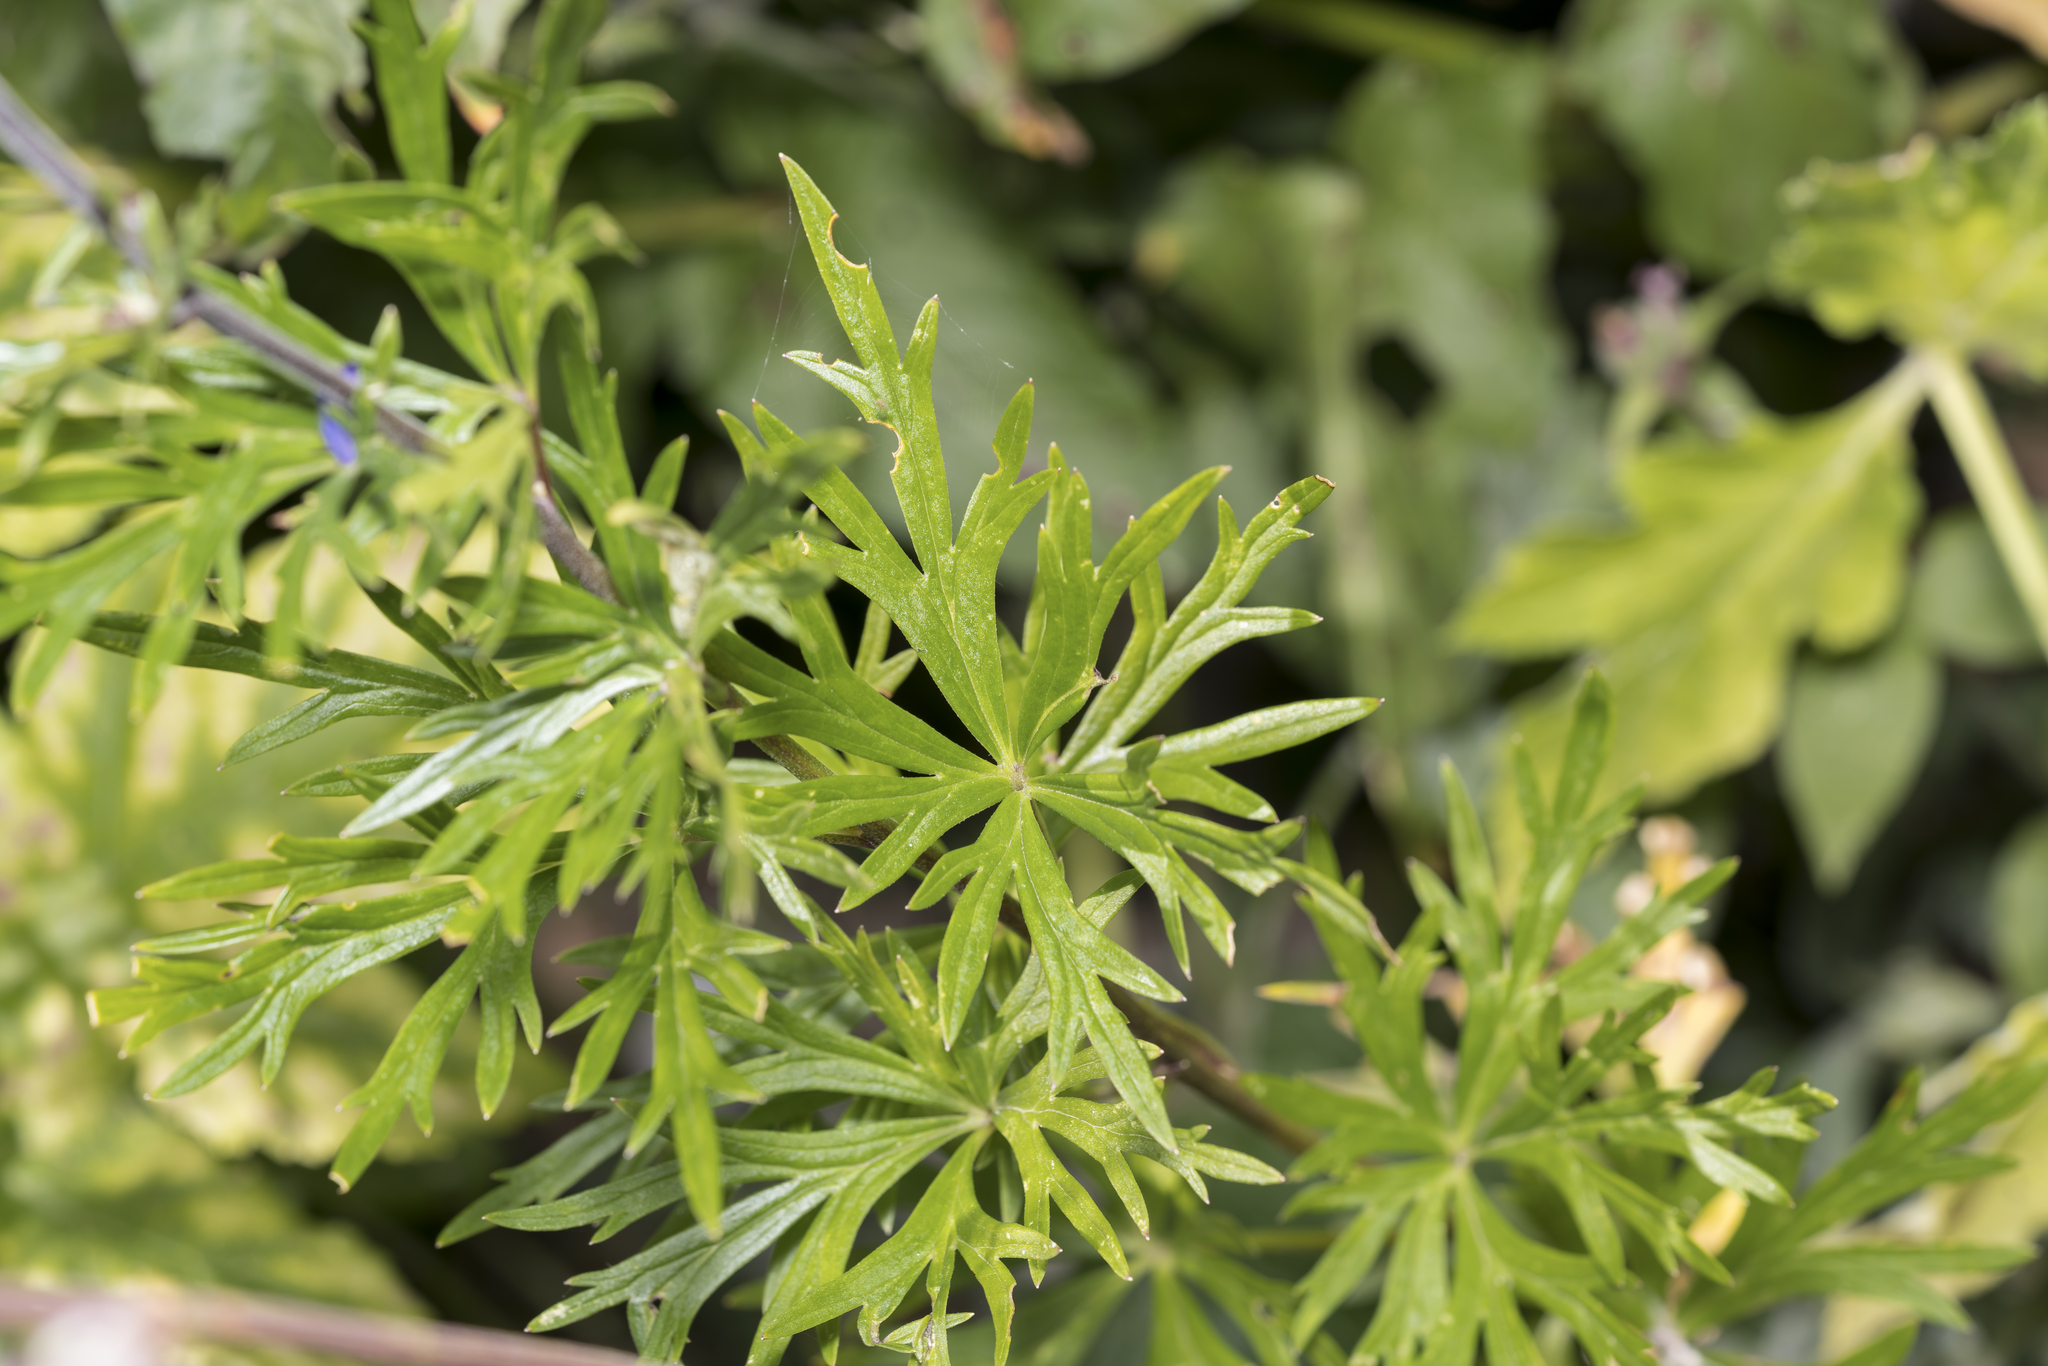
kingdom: Plantae
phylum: Tracheophyta
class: Magnoliopsida
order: Ranunculales
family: Ranunculaceae
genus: Aconitum
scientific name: Aconitum napellus
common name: Garden monkshood
